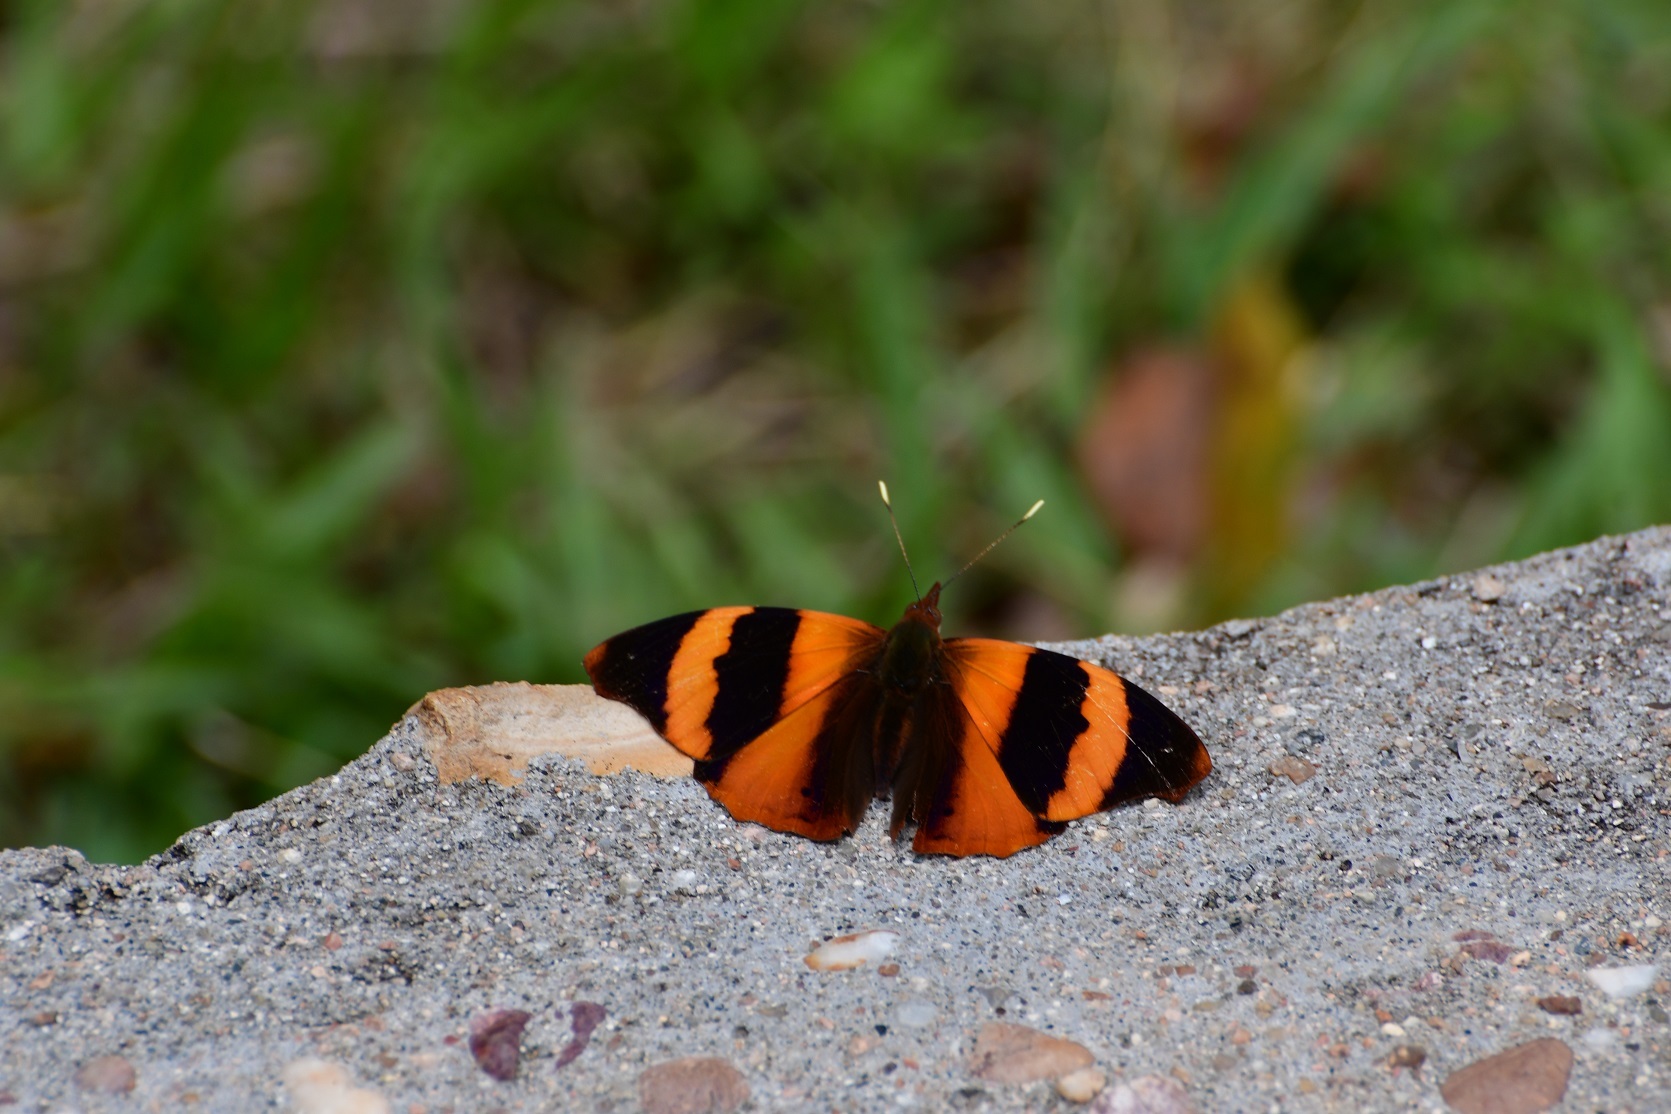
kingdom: Animalia
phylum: Arthropoda
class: Insecta
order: Lepidoptera
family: Nymphalidae
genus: Epiphile
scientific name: Epiphile adrasta
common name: Common banner
